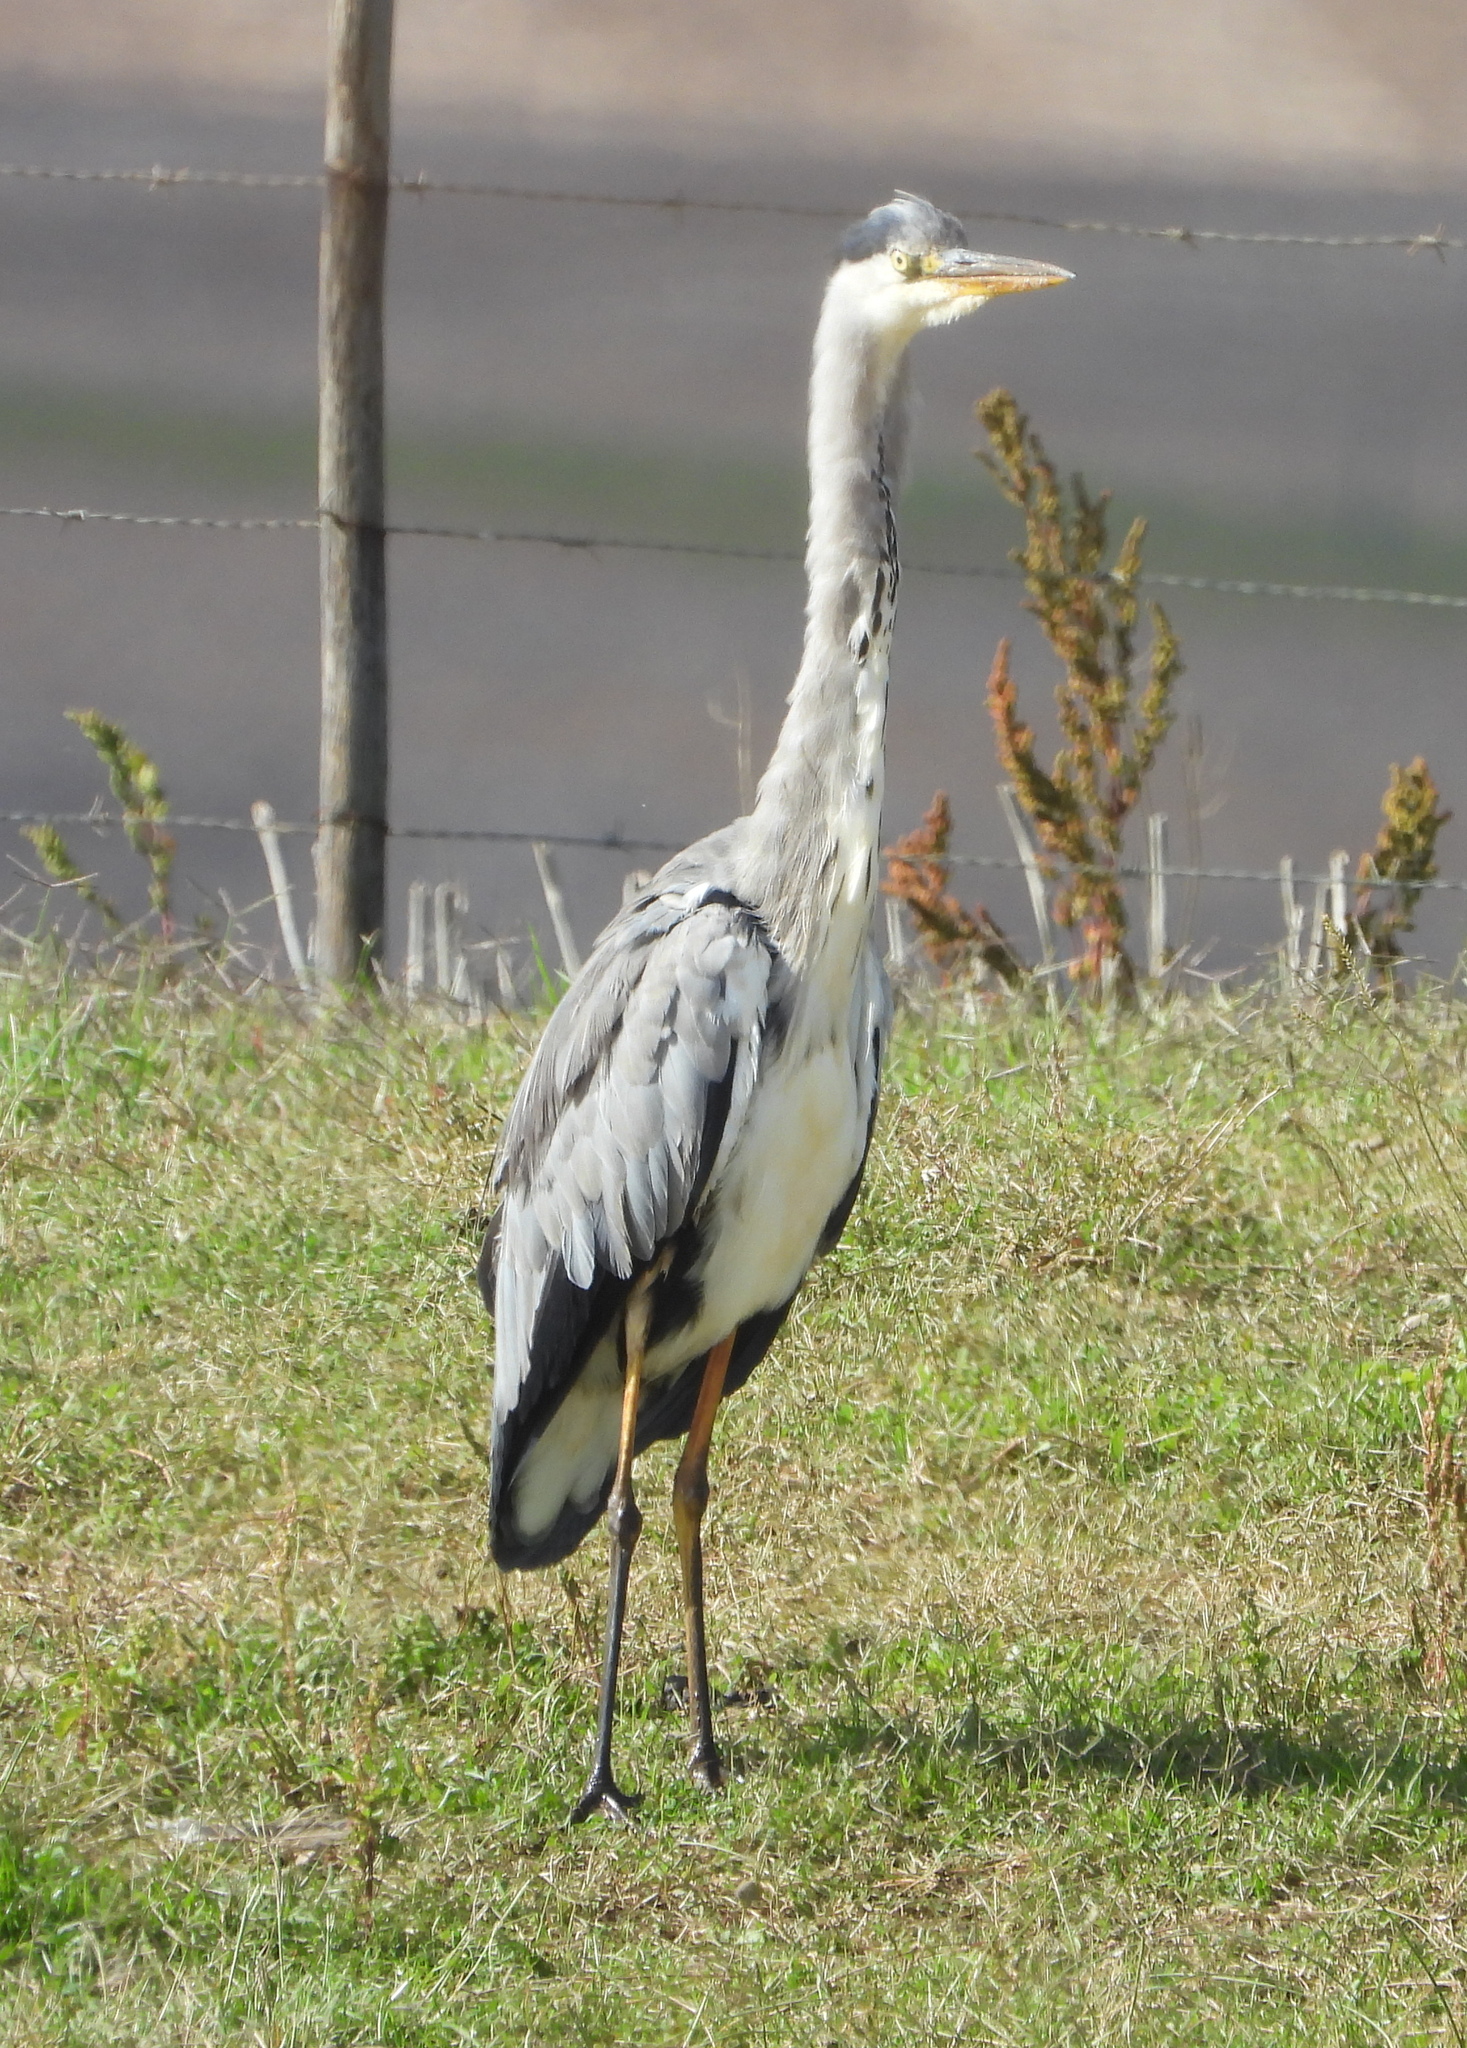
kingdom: Animalia
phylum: Chordata
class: Aves
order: Pelecaniformes
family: Ardeidae
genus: Ardea
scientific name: Ardea cinerea
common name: Grey heron
